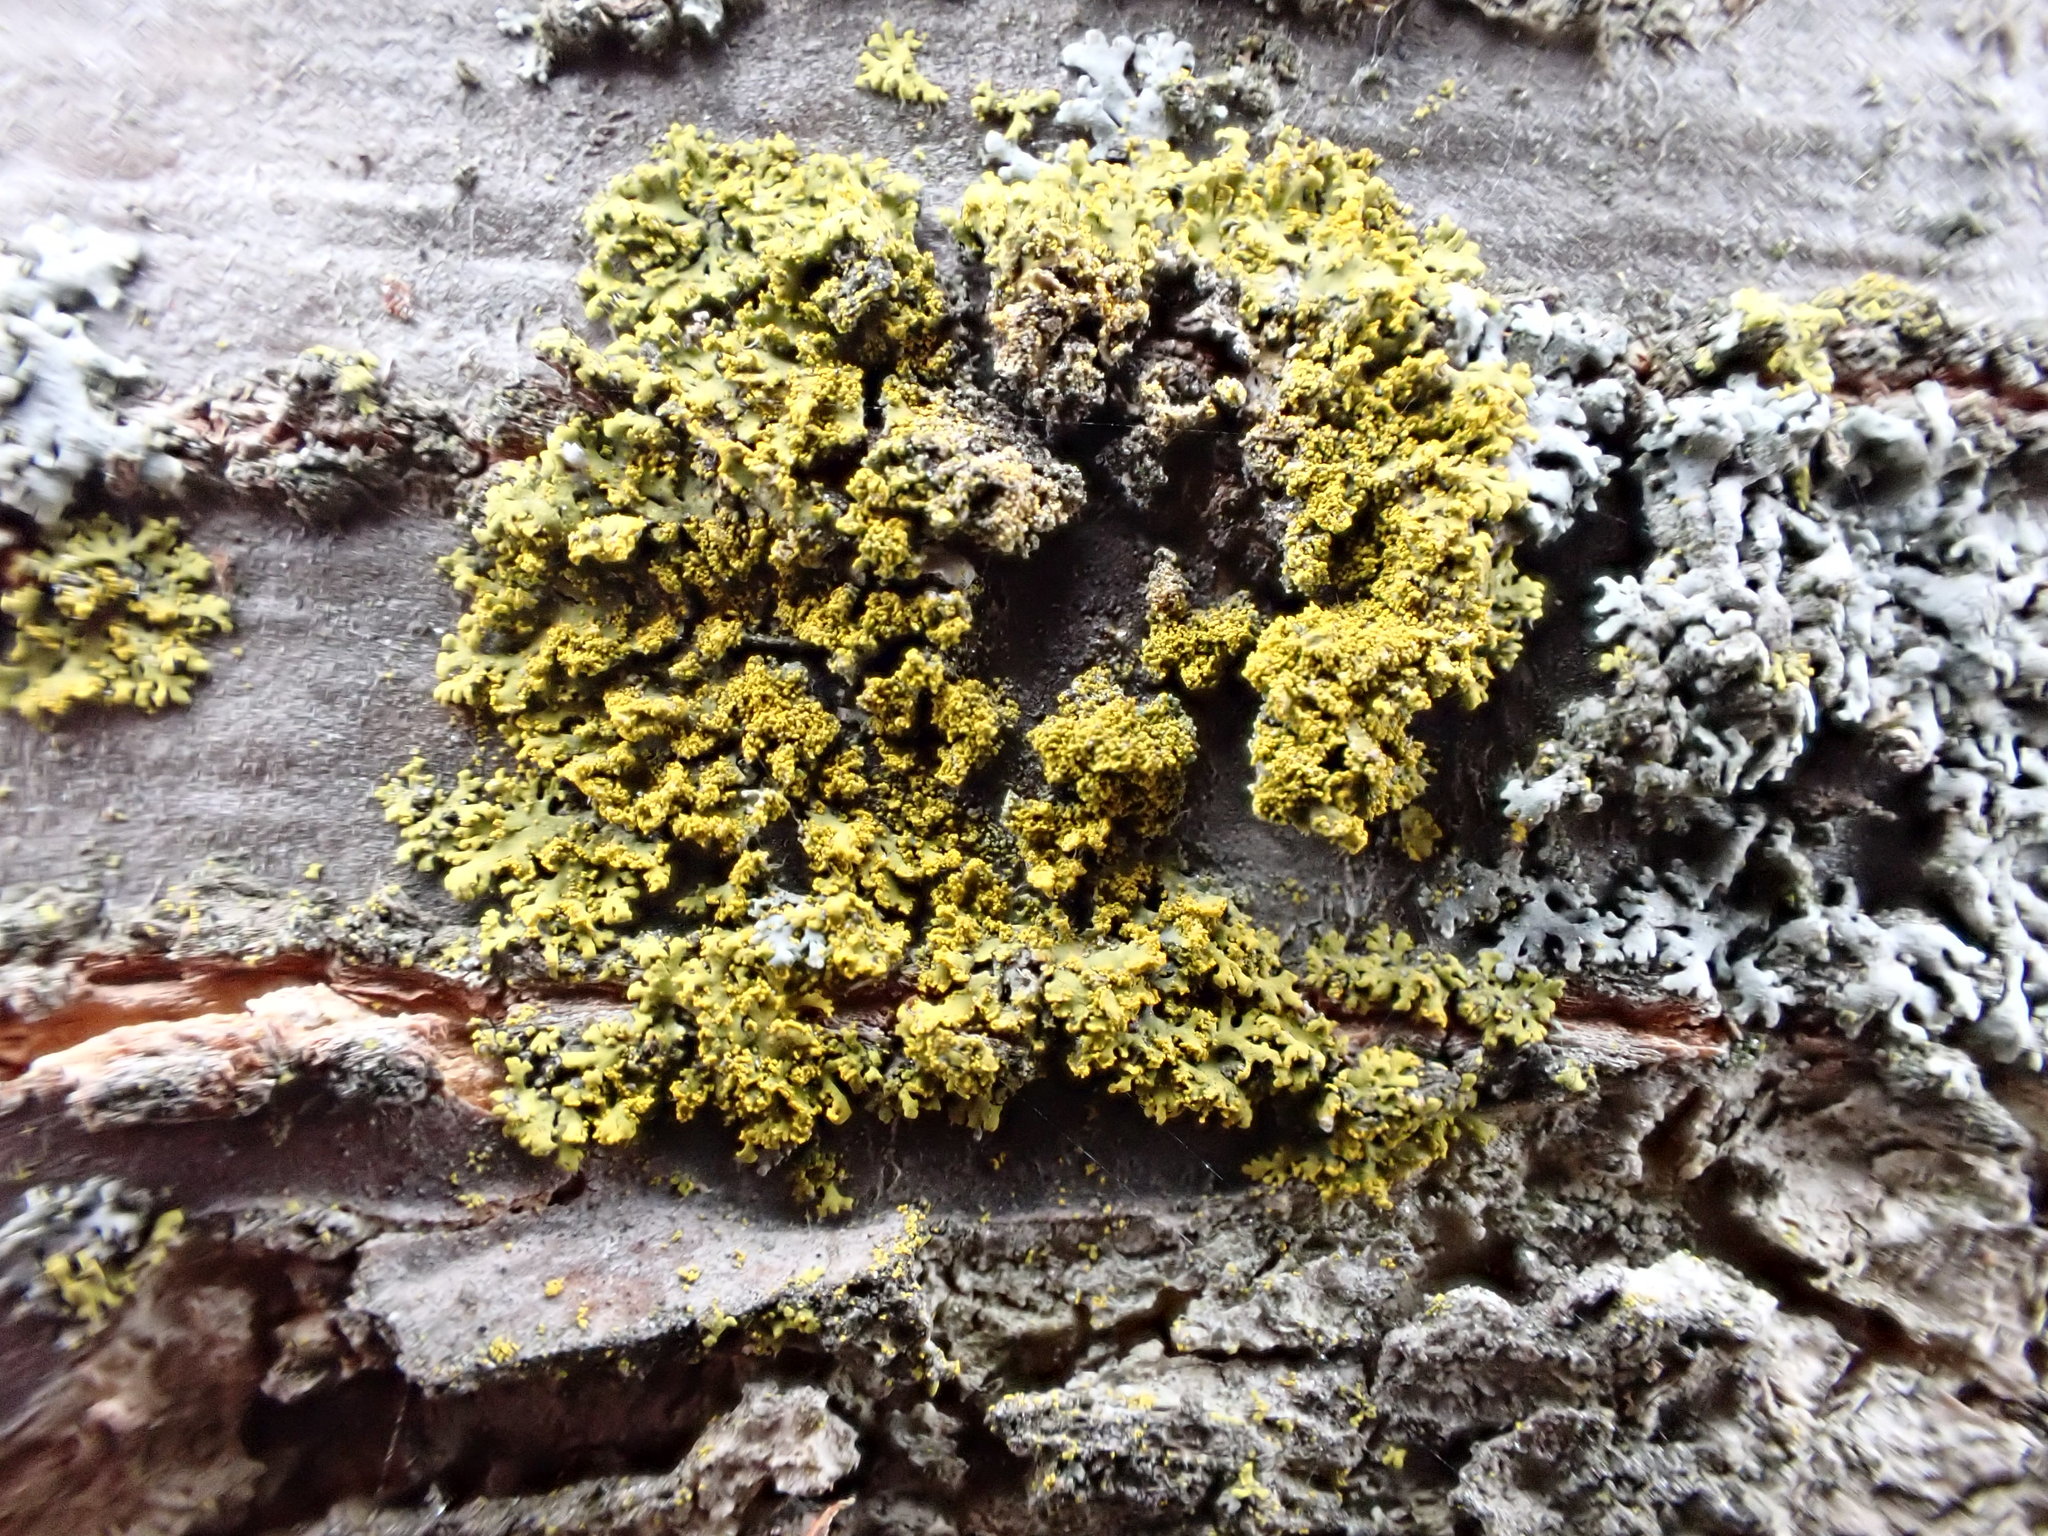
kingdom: Fungi
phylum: Ascomycota
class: Candelariomycetes
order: Candelariales
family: Candelariaceae
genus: Candelaria
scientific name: Candelaria concolor
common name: Candleflame lichen
